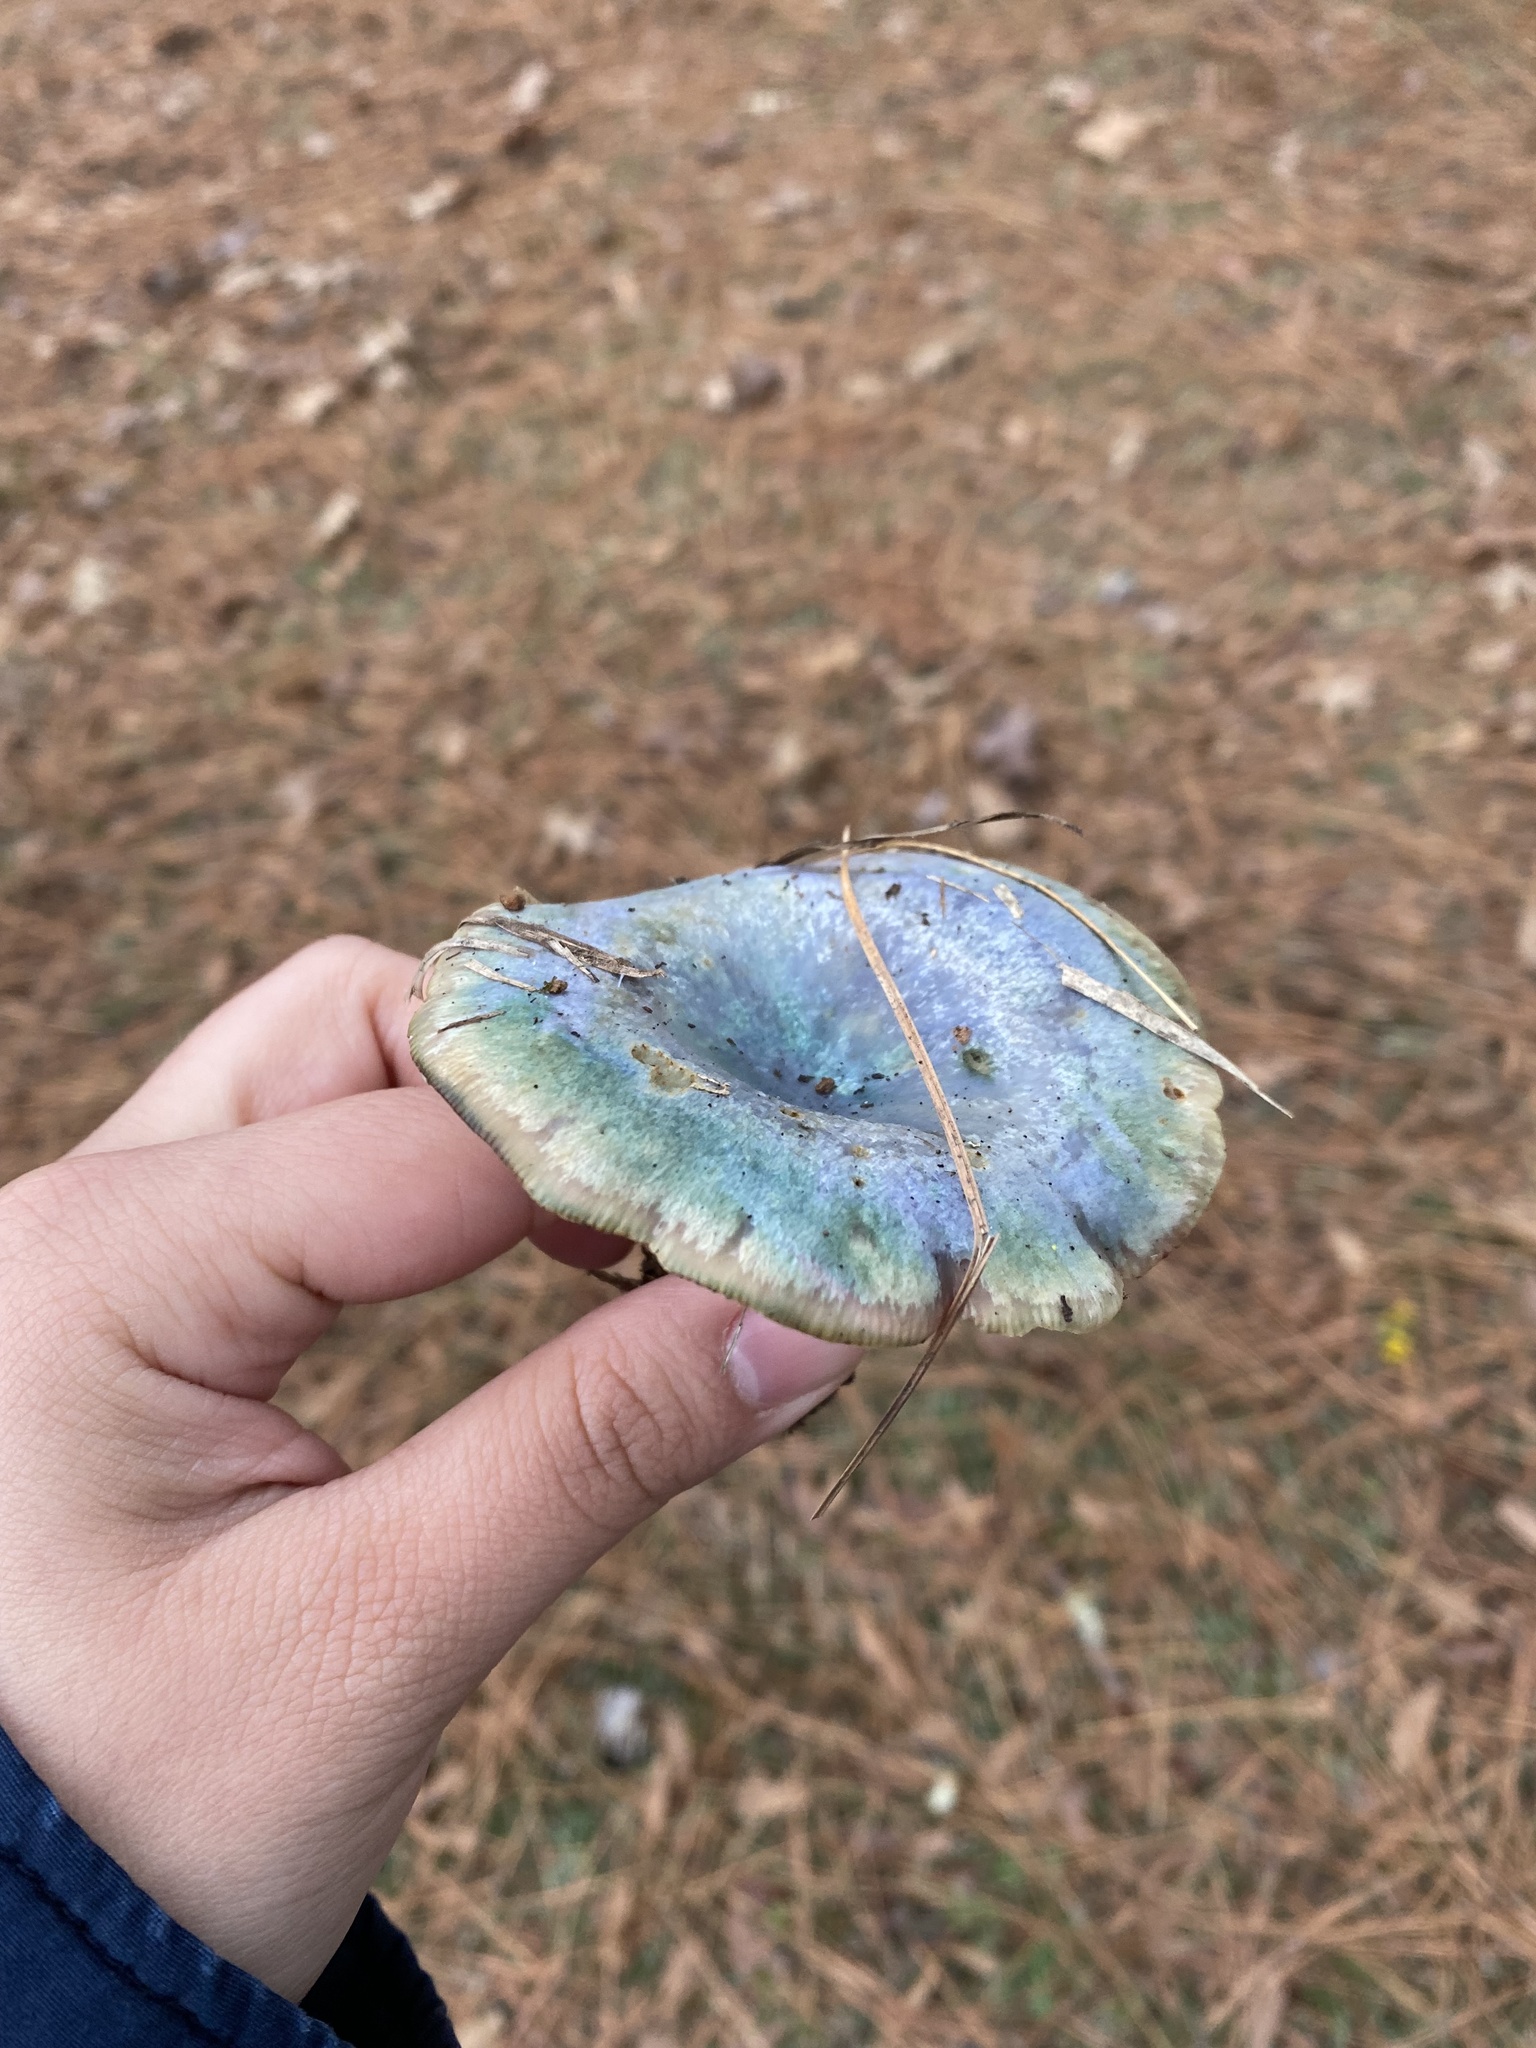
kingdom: Fungi
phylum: Basidiomycota
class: Agaricomycetes
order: Russulales
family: Russulaceae
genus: Lactarius
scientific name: Lactarius paradoxus
